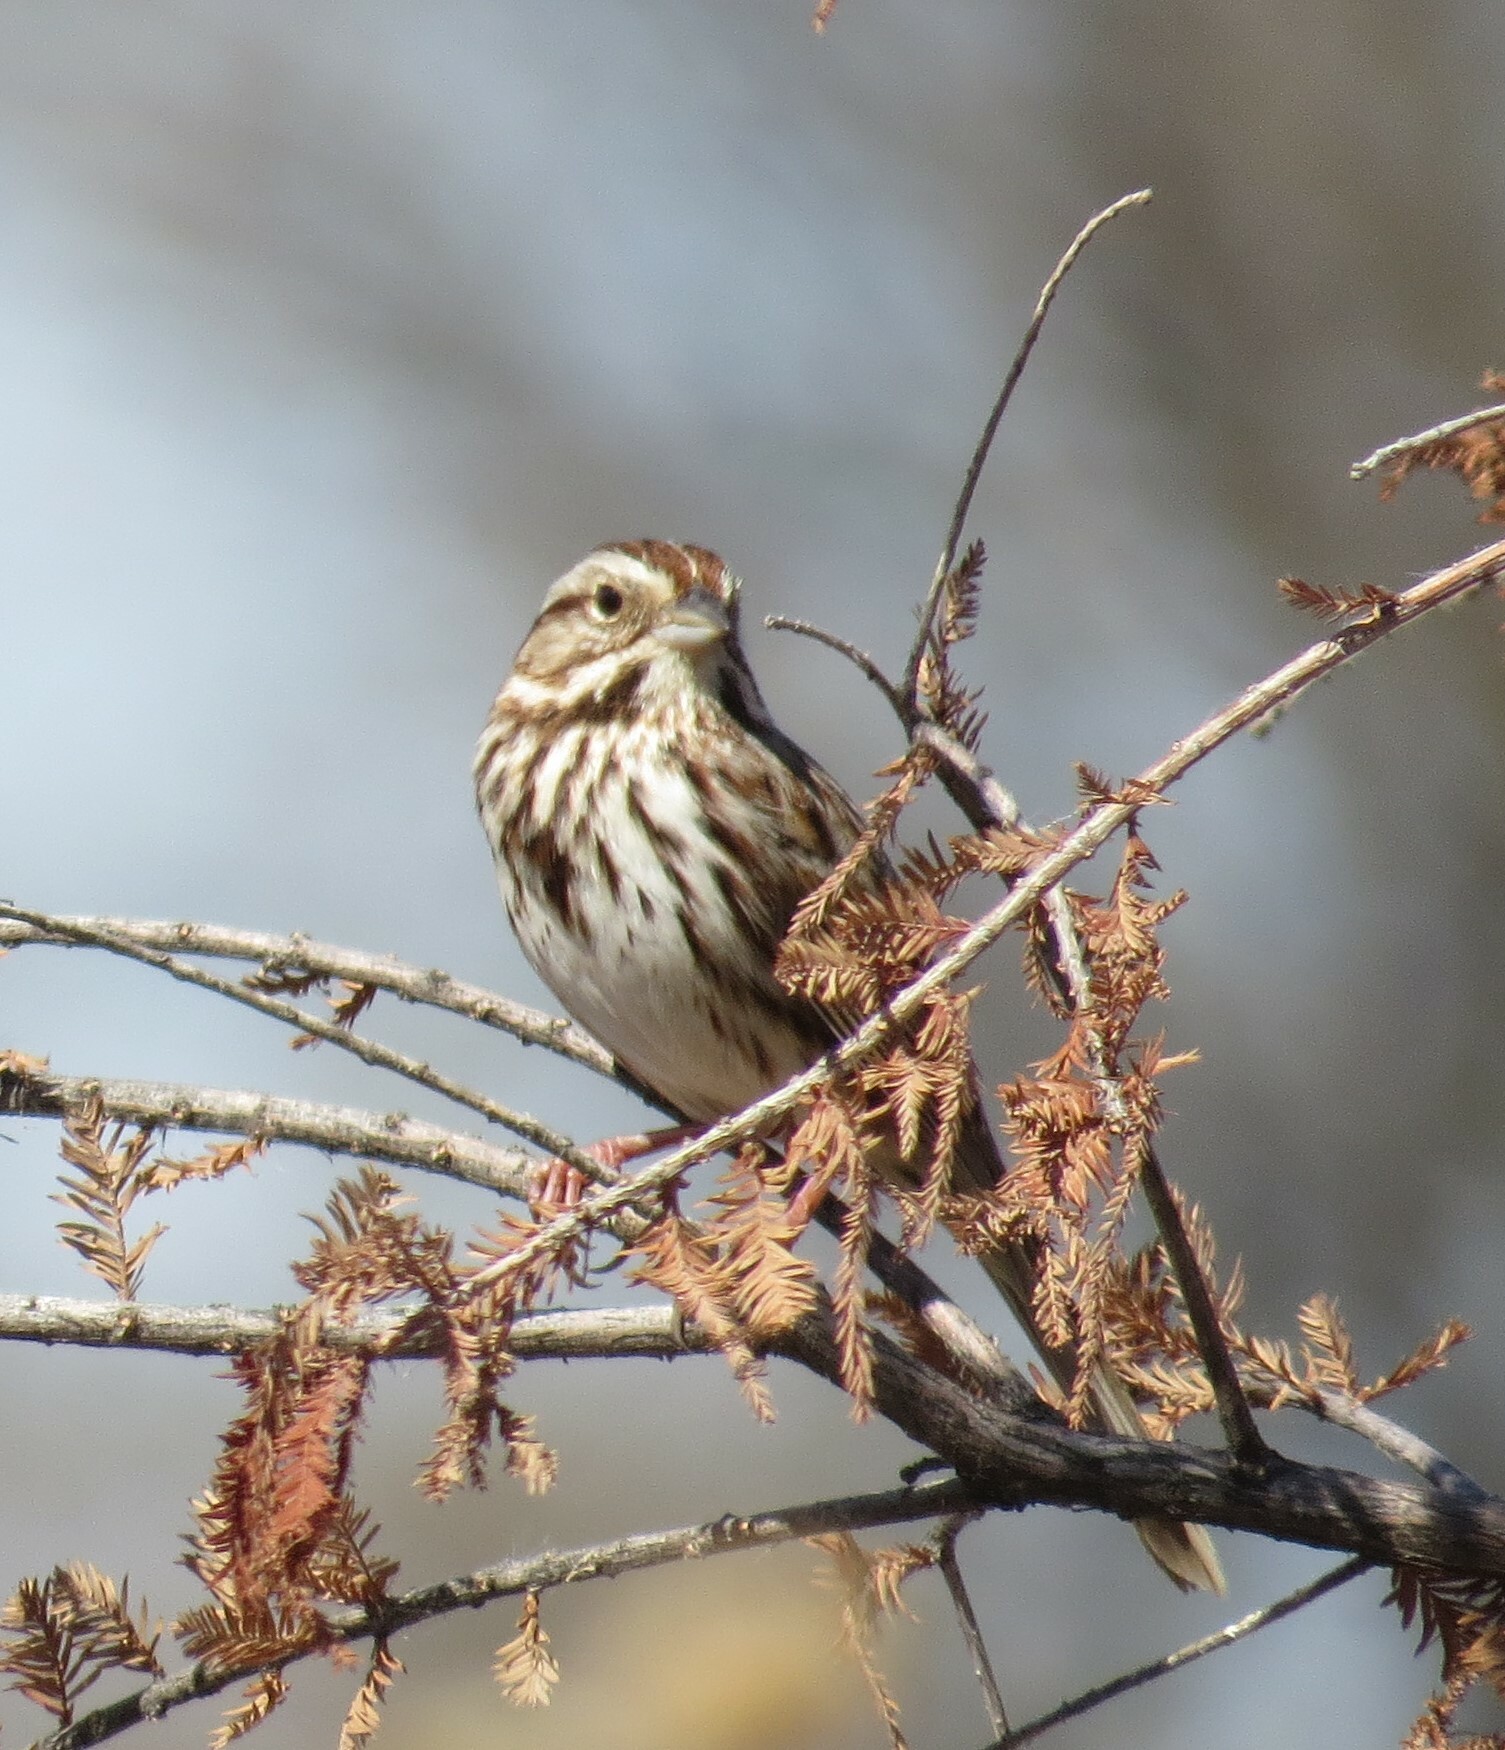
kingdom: Animalia
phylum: Chordata
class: Aves
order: Passeriformes
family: Passerellidae
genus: Melospiza
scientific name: Melospiza melodia
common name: Song sparrow
